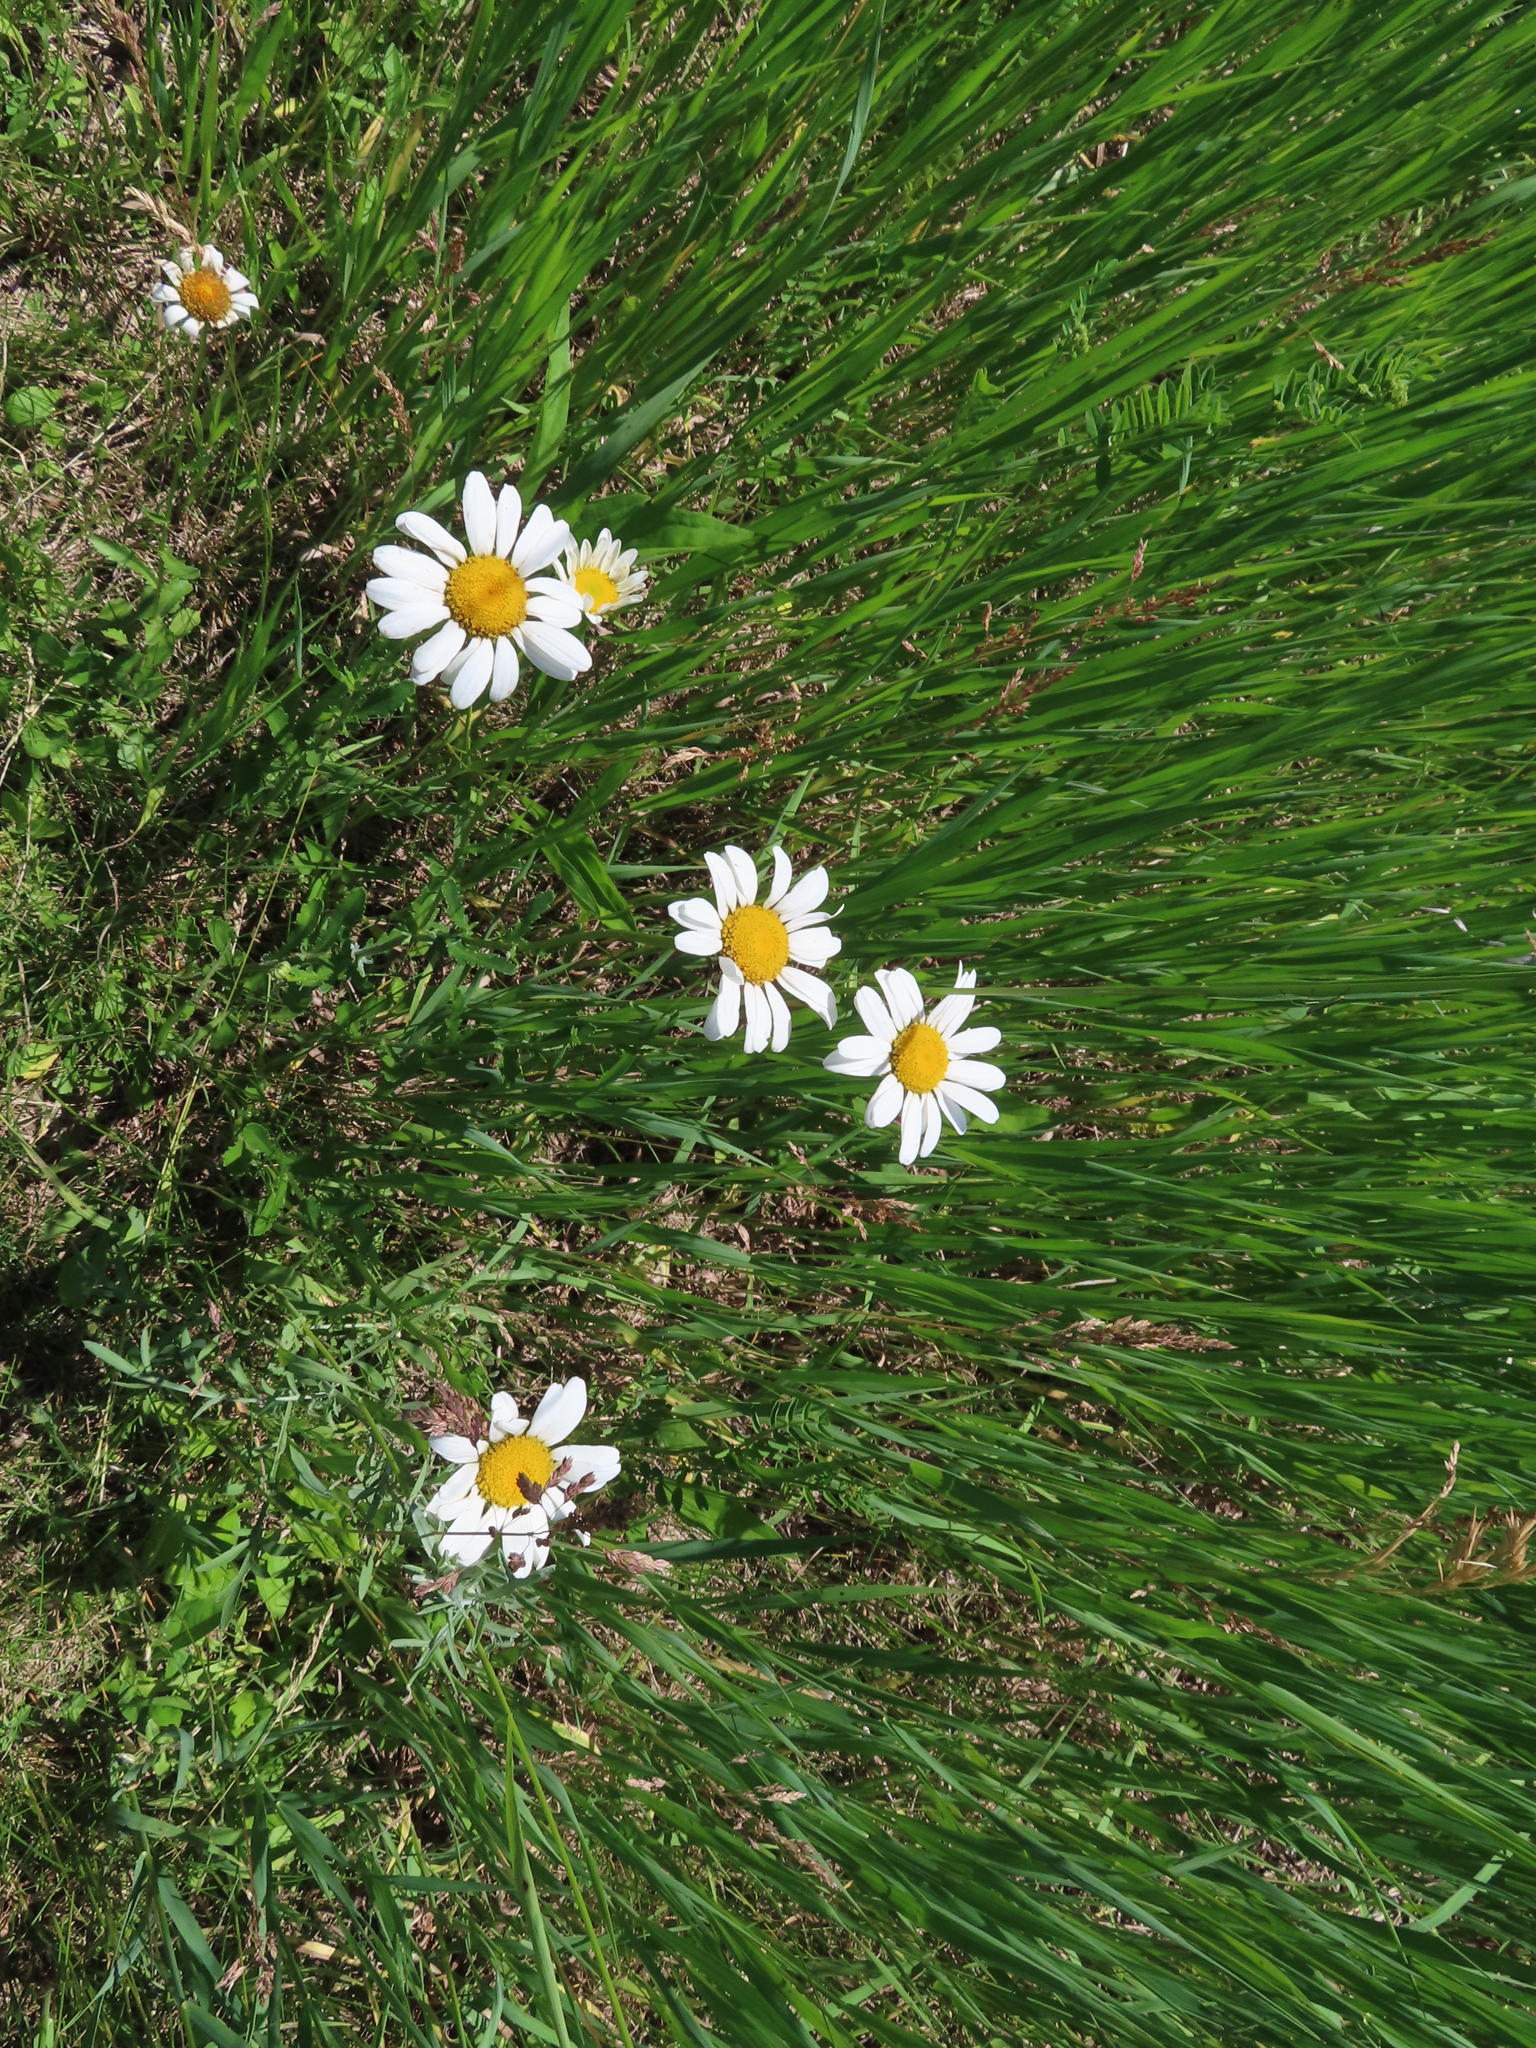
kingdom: Plantae
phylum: Tracheophyta
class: Magnoliopsida
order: Asterales
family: Asteraceae
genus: Leucanthemum
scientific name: Leucanthemum vulgare
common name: Oxeye daisy
